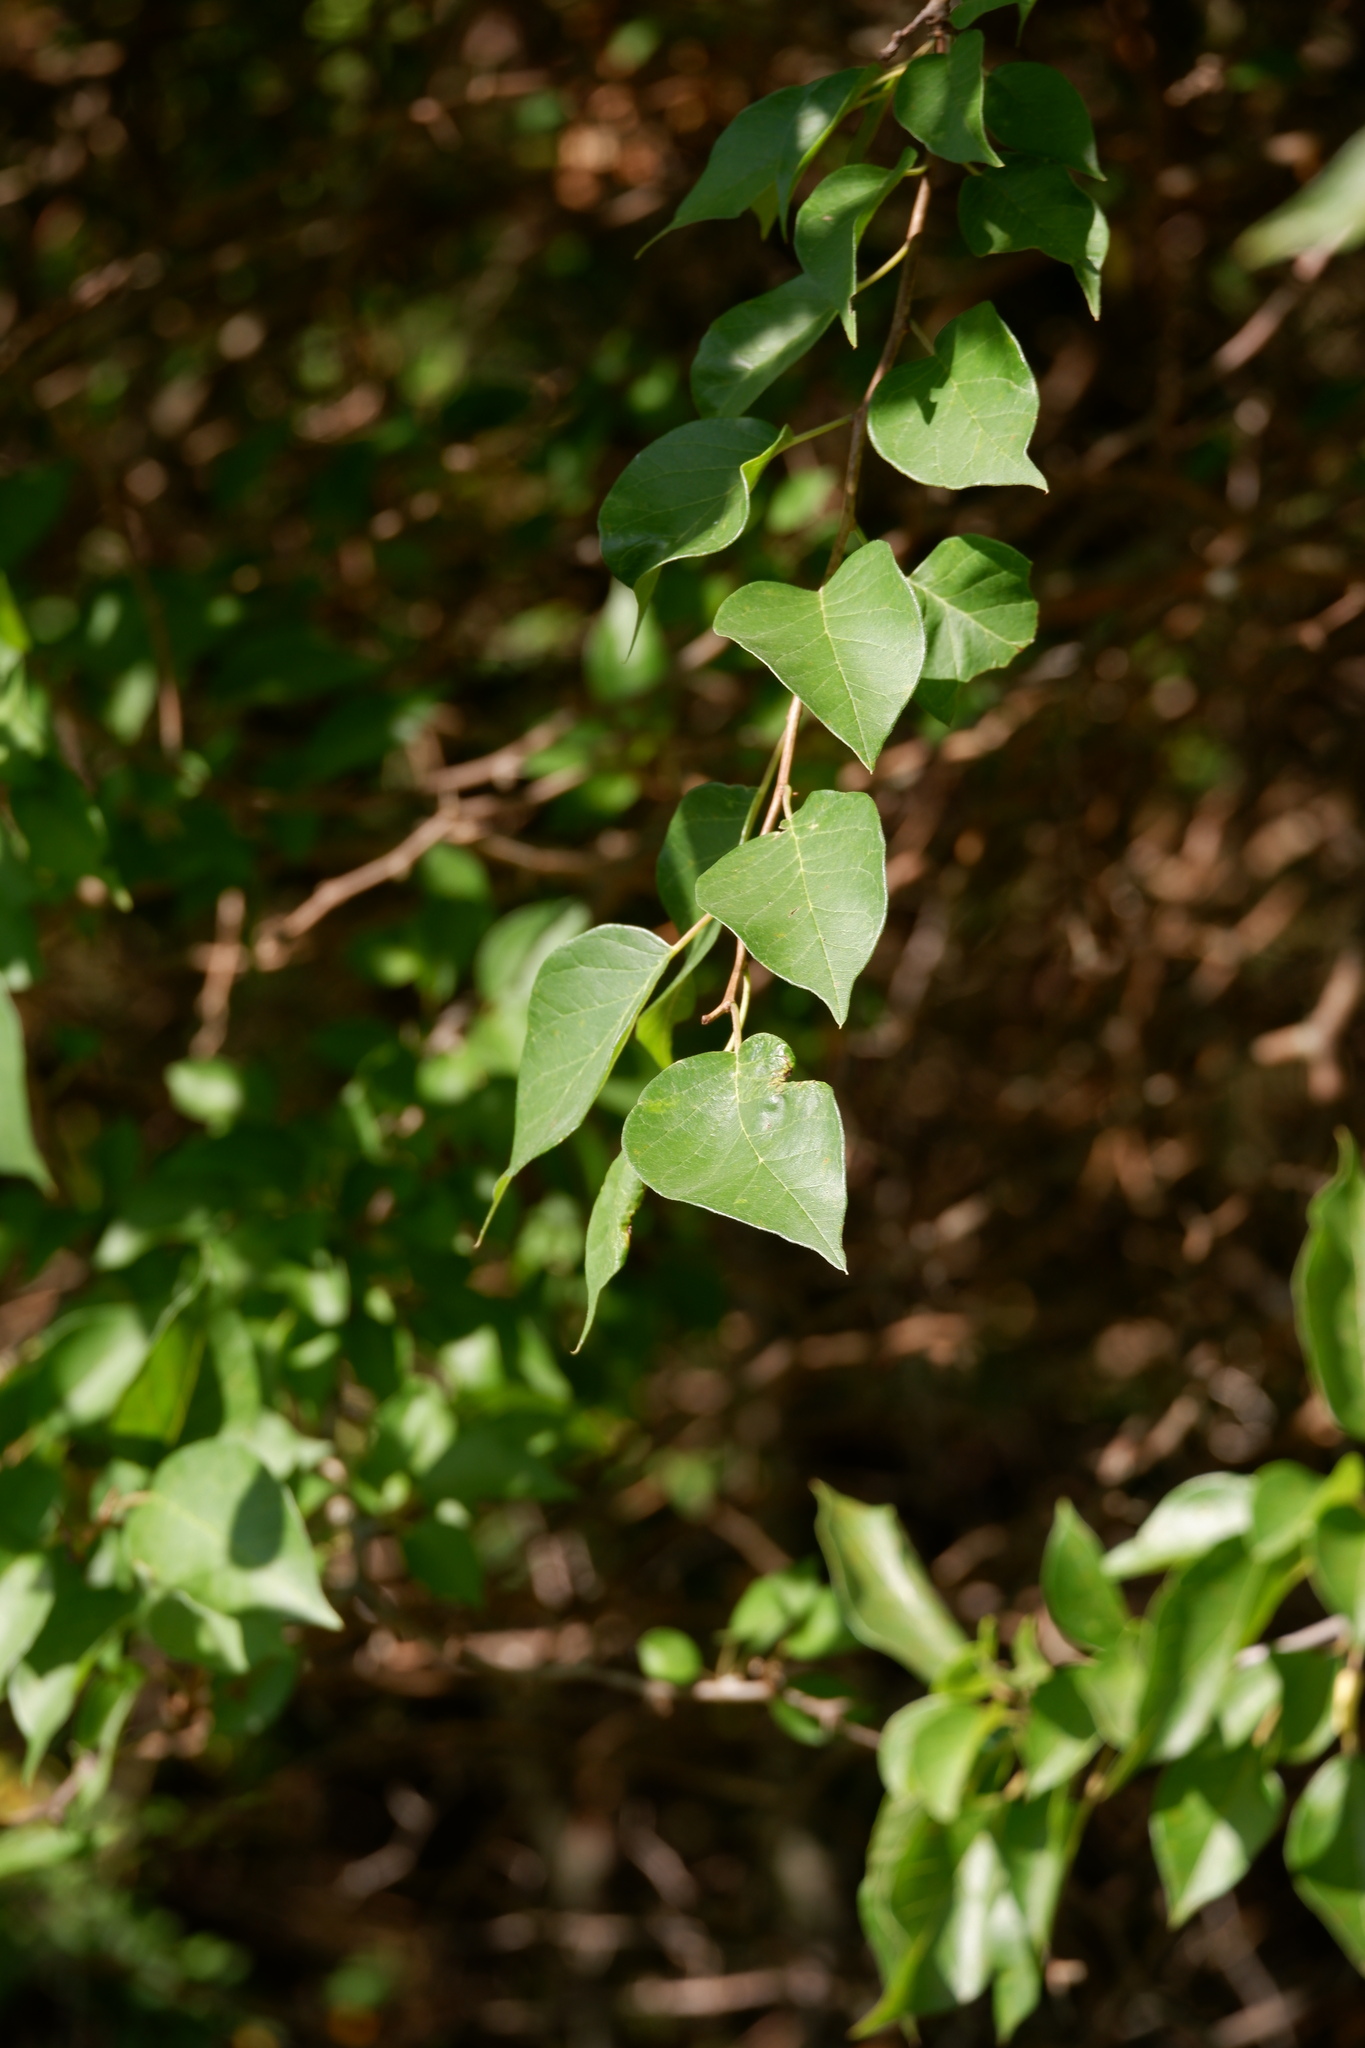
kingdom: Plantae
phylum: Tracheophyta
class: Magnoliopsida
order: Rosales
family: Moraceae
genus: Maclura
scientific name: Maclura pomifera
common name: Osage-orange
